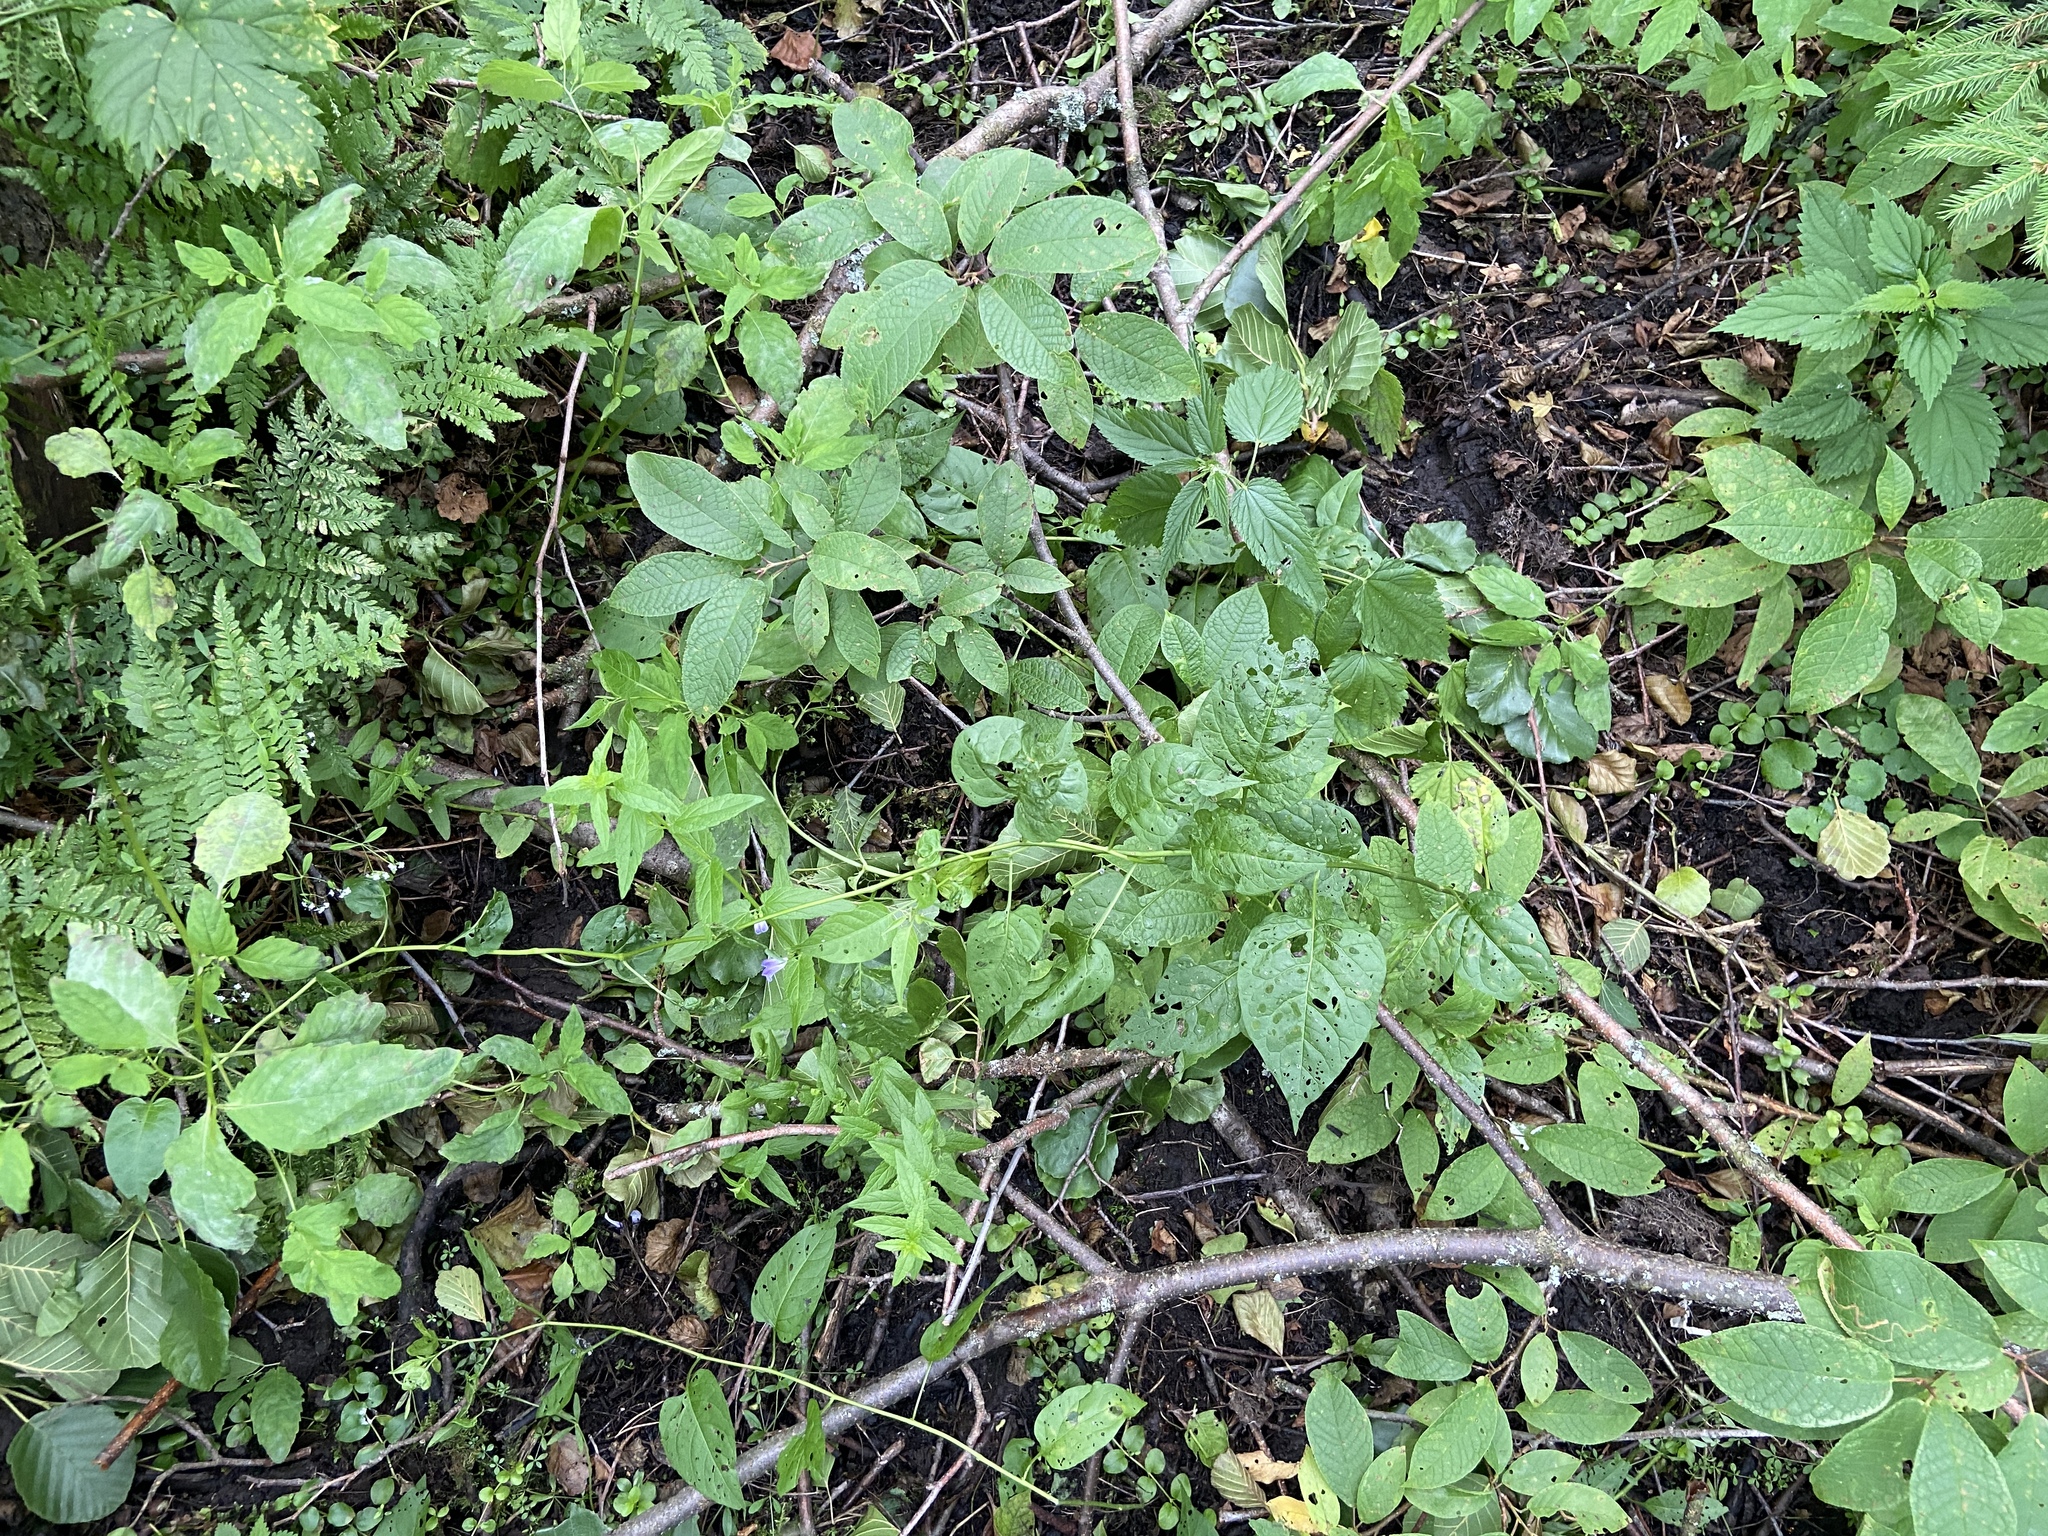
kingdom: Plantae
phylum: Tracheophyta
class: Magnoliopsida
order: Rosales
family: Rosaceae
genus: Prunus
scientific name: Prunus padus
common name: Bird cherry
